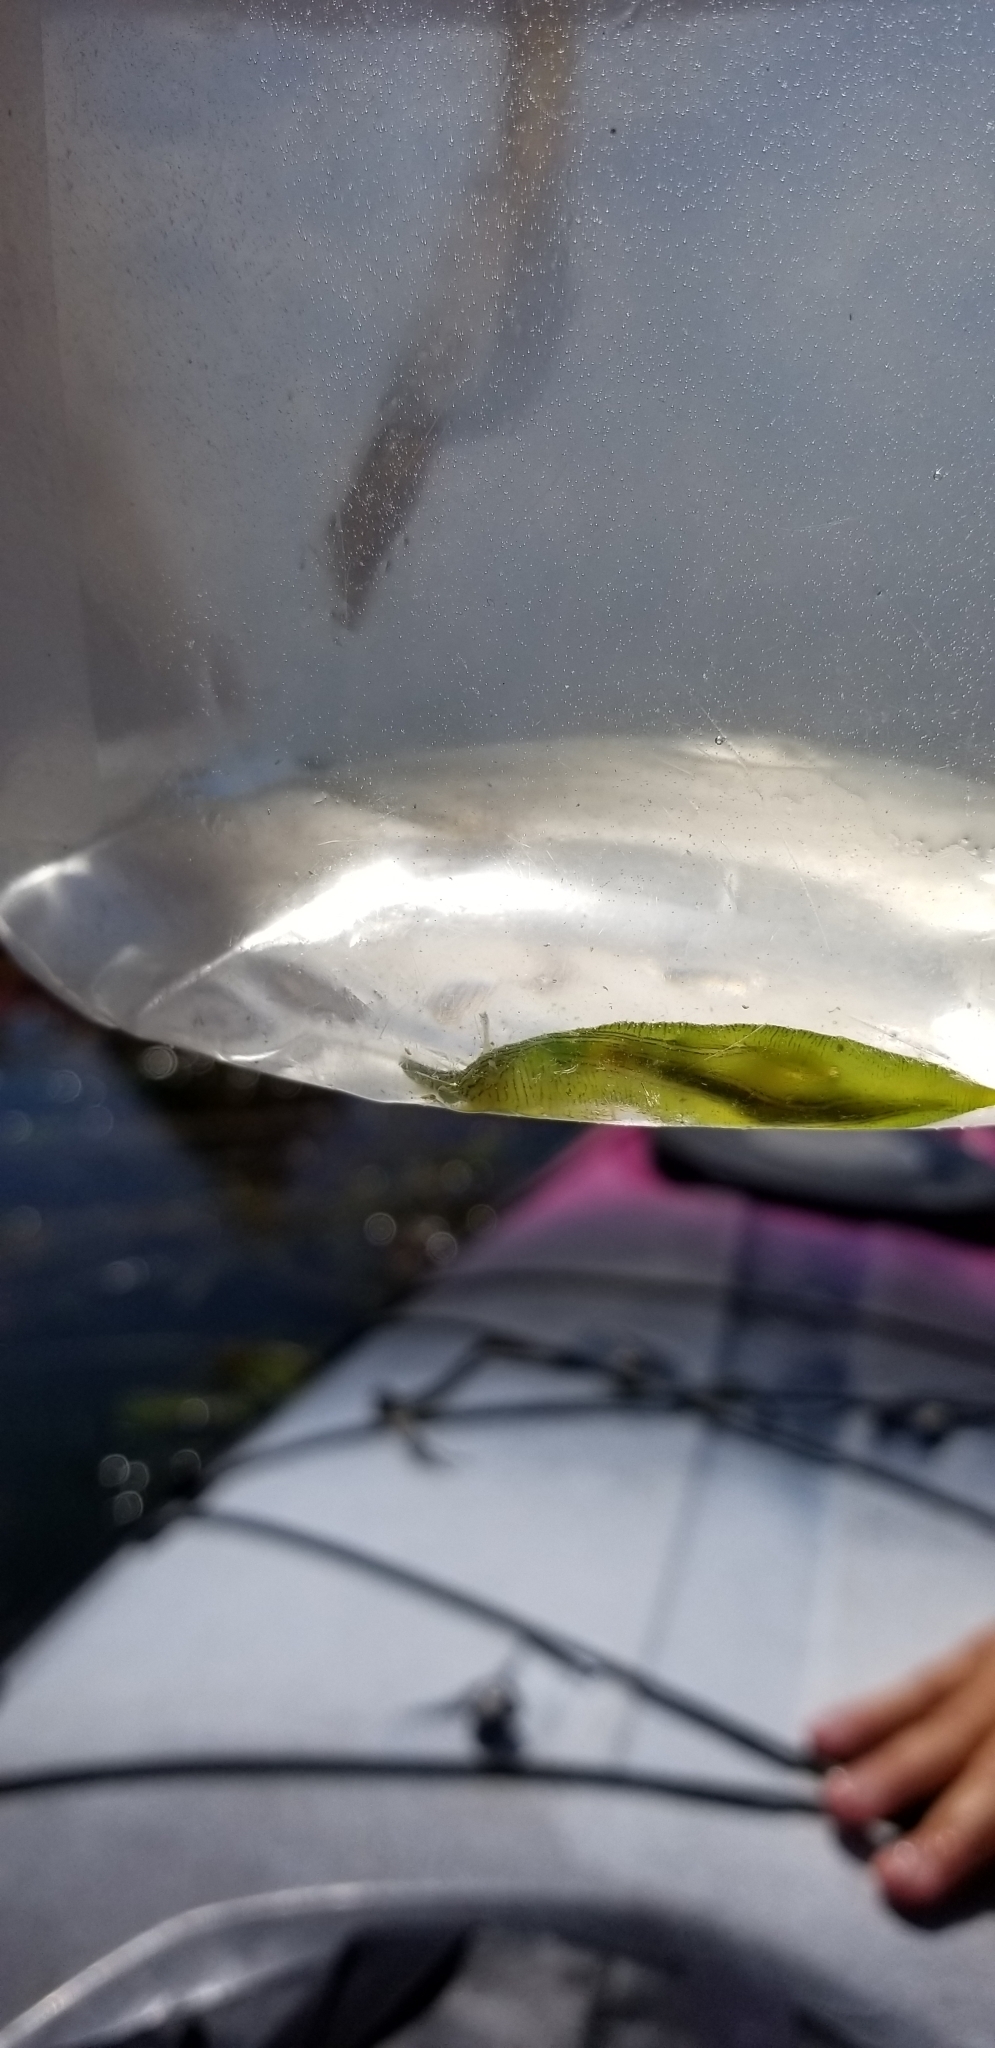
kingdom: Animalia
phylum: Mollusca
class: Gastropoda
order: Aplysiida
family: Aplysiidae
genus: Phyllaplysia
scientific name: Phyllaplysia taylori
